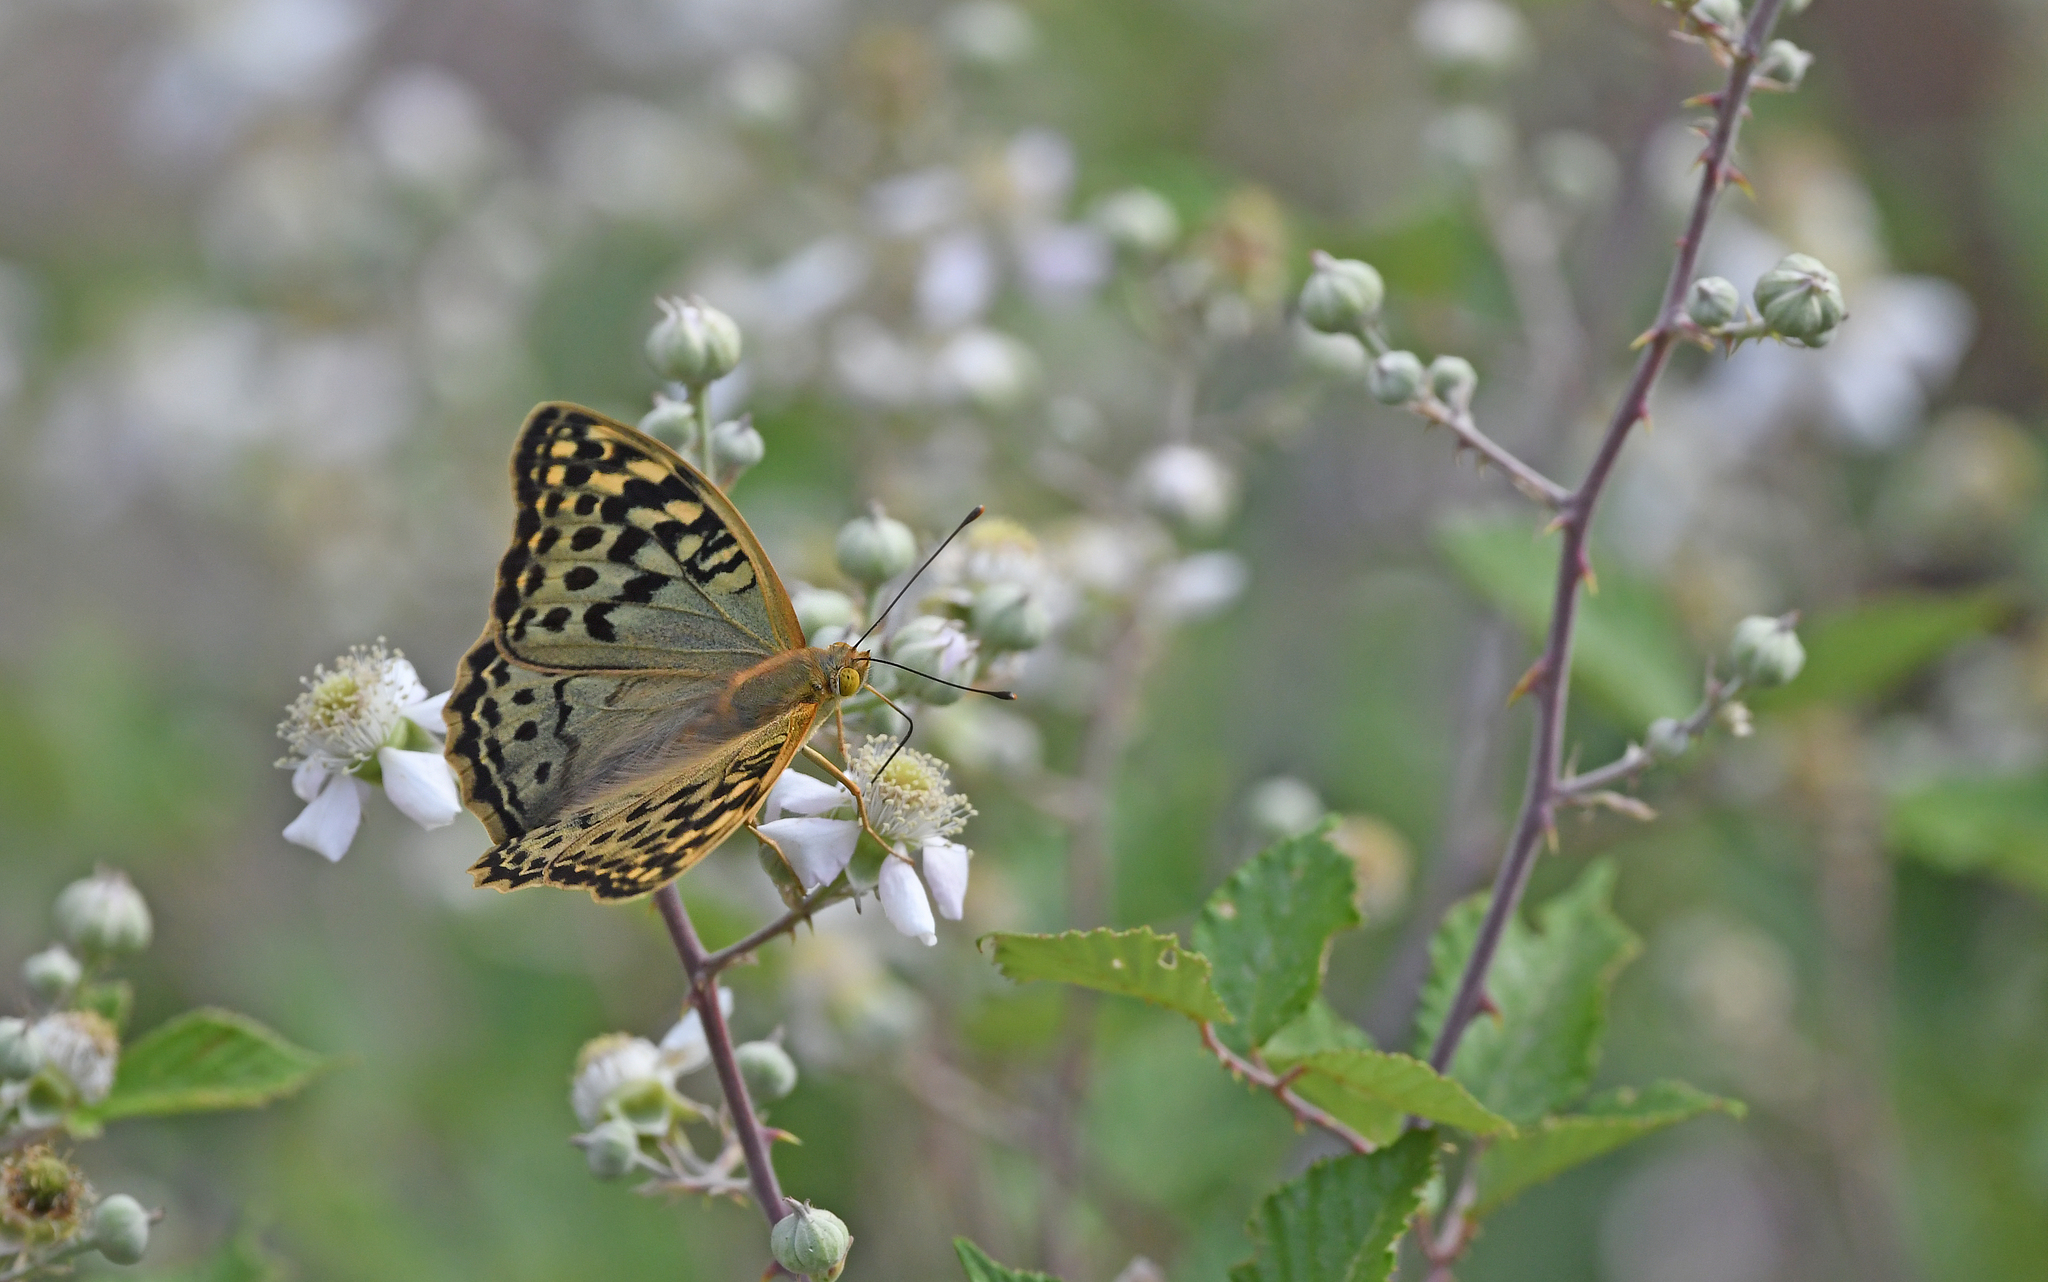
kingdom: Animalia
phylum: Arthropoda
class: Insecta
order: Lepidoptera
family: Nymphalidae
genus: Damora
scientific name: Damora pandora
